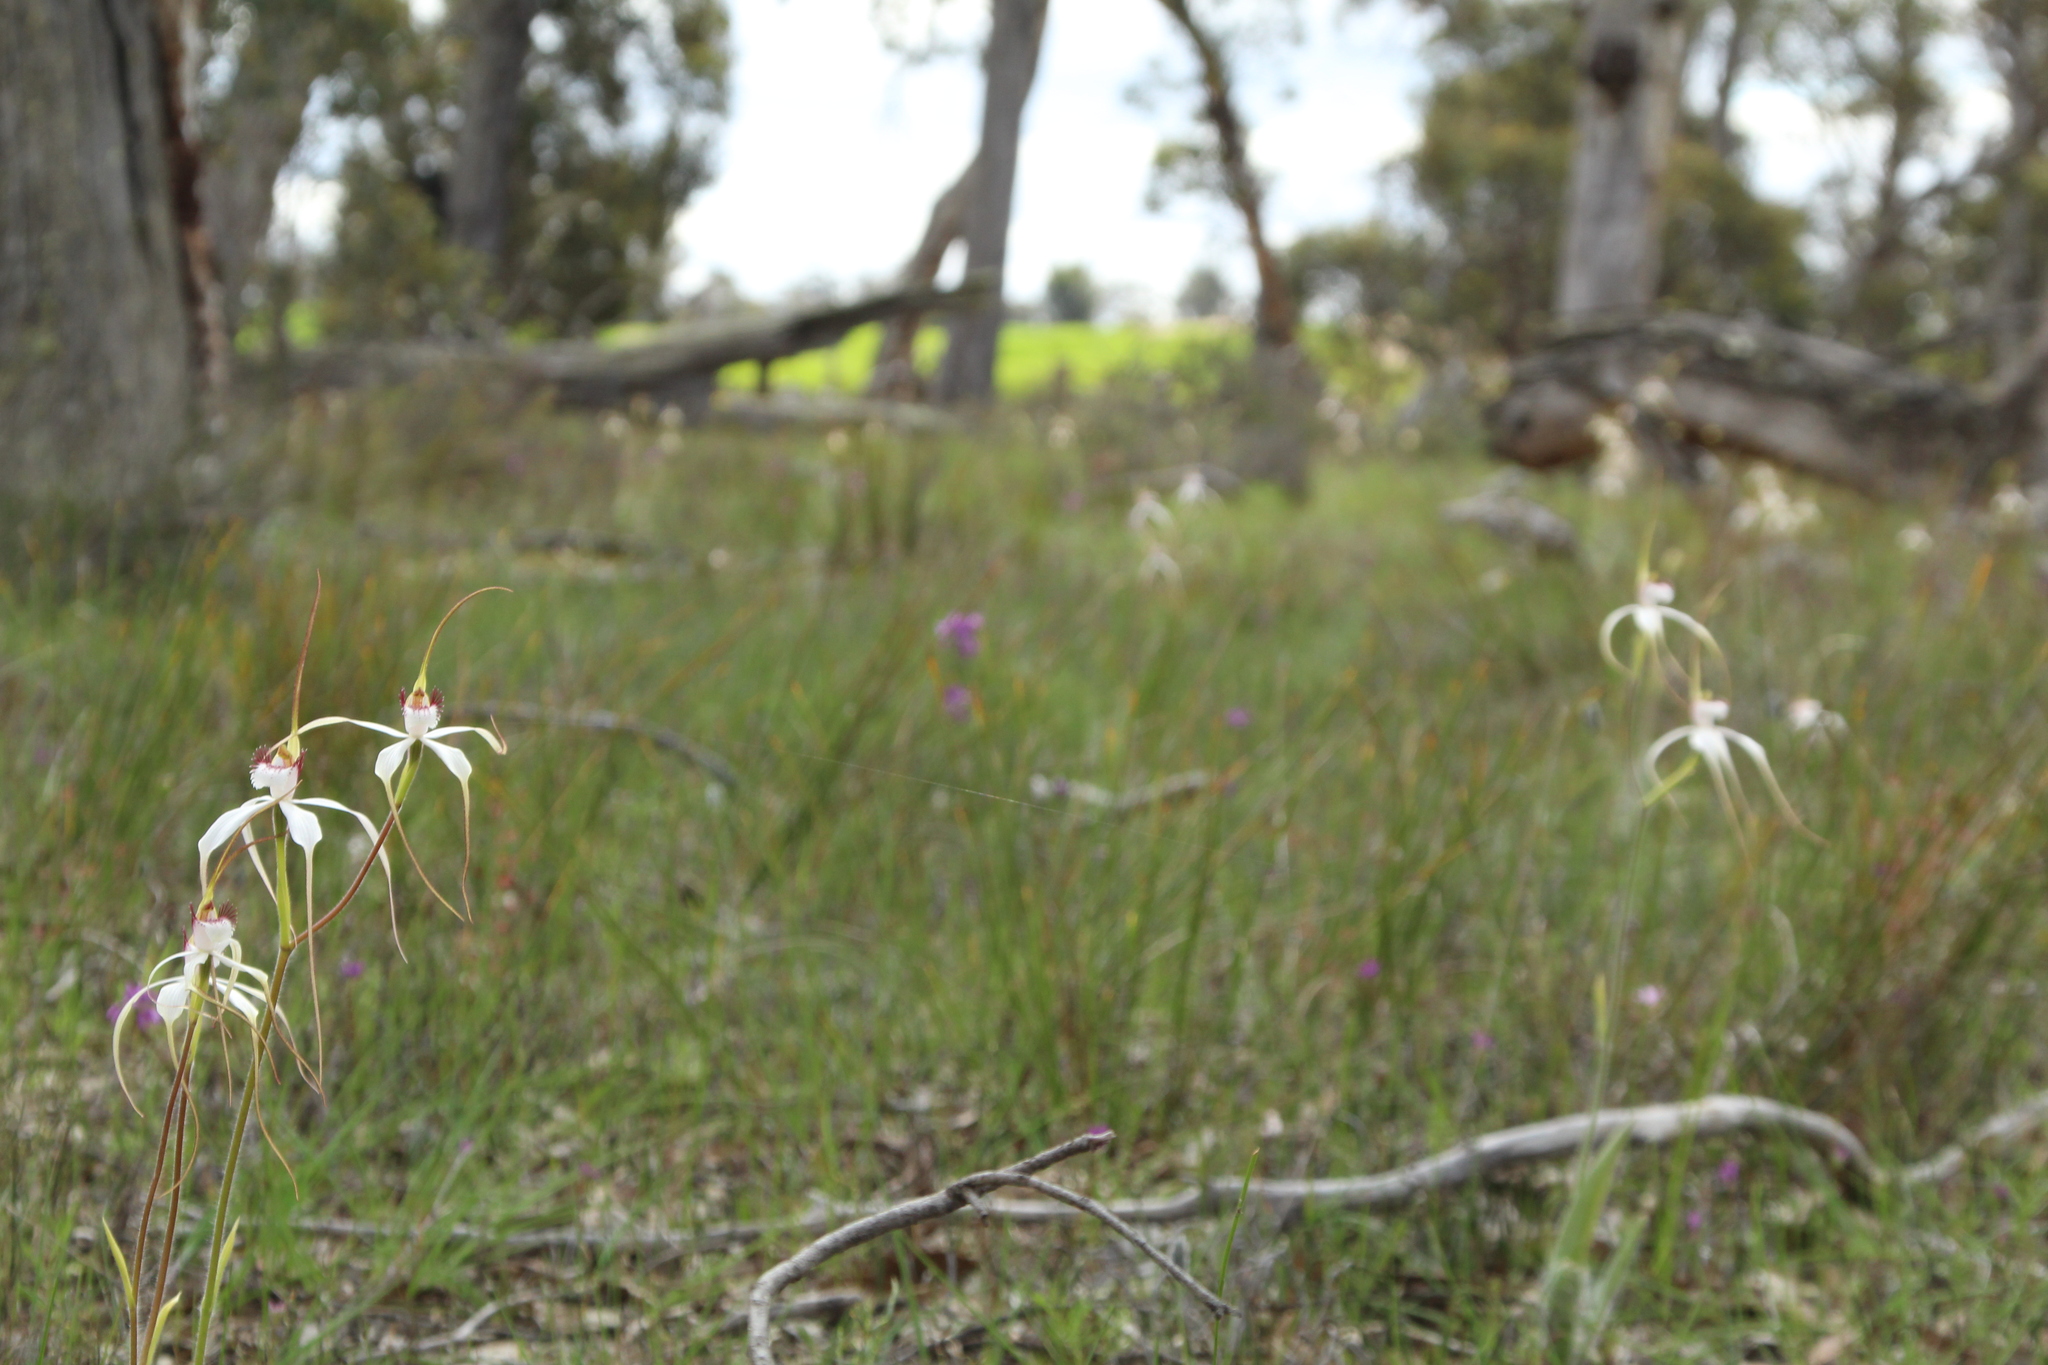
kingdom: Plantae
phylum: Tracheophyta
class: Liliopsida
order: Asparagales
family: Orchidaceae
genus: Caladenia
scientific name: Caladenia longicauda
